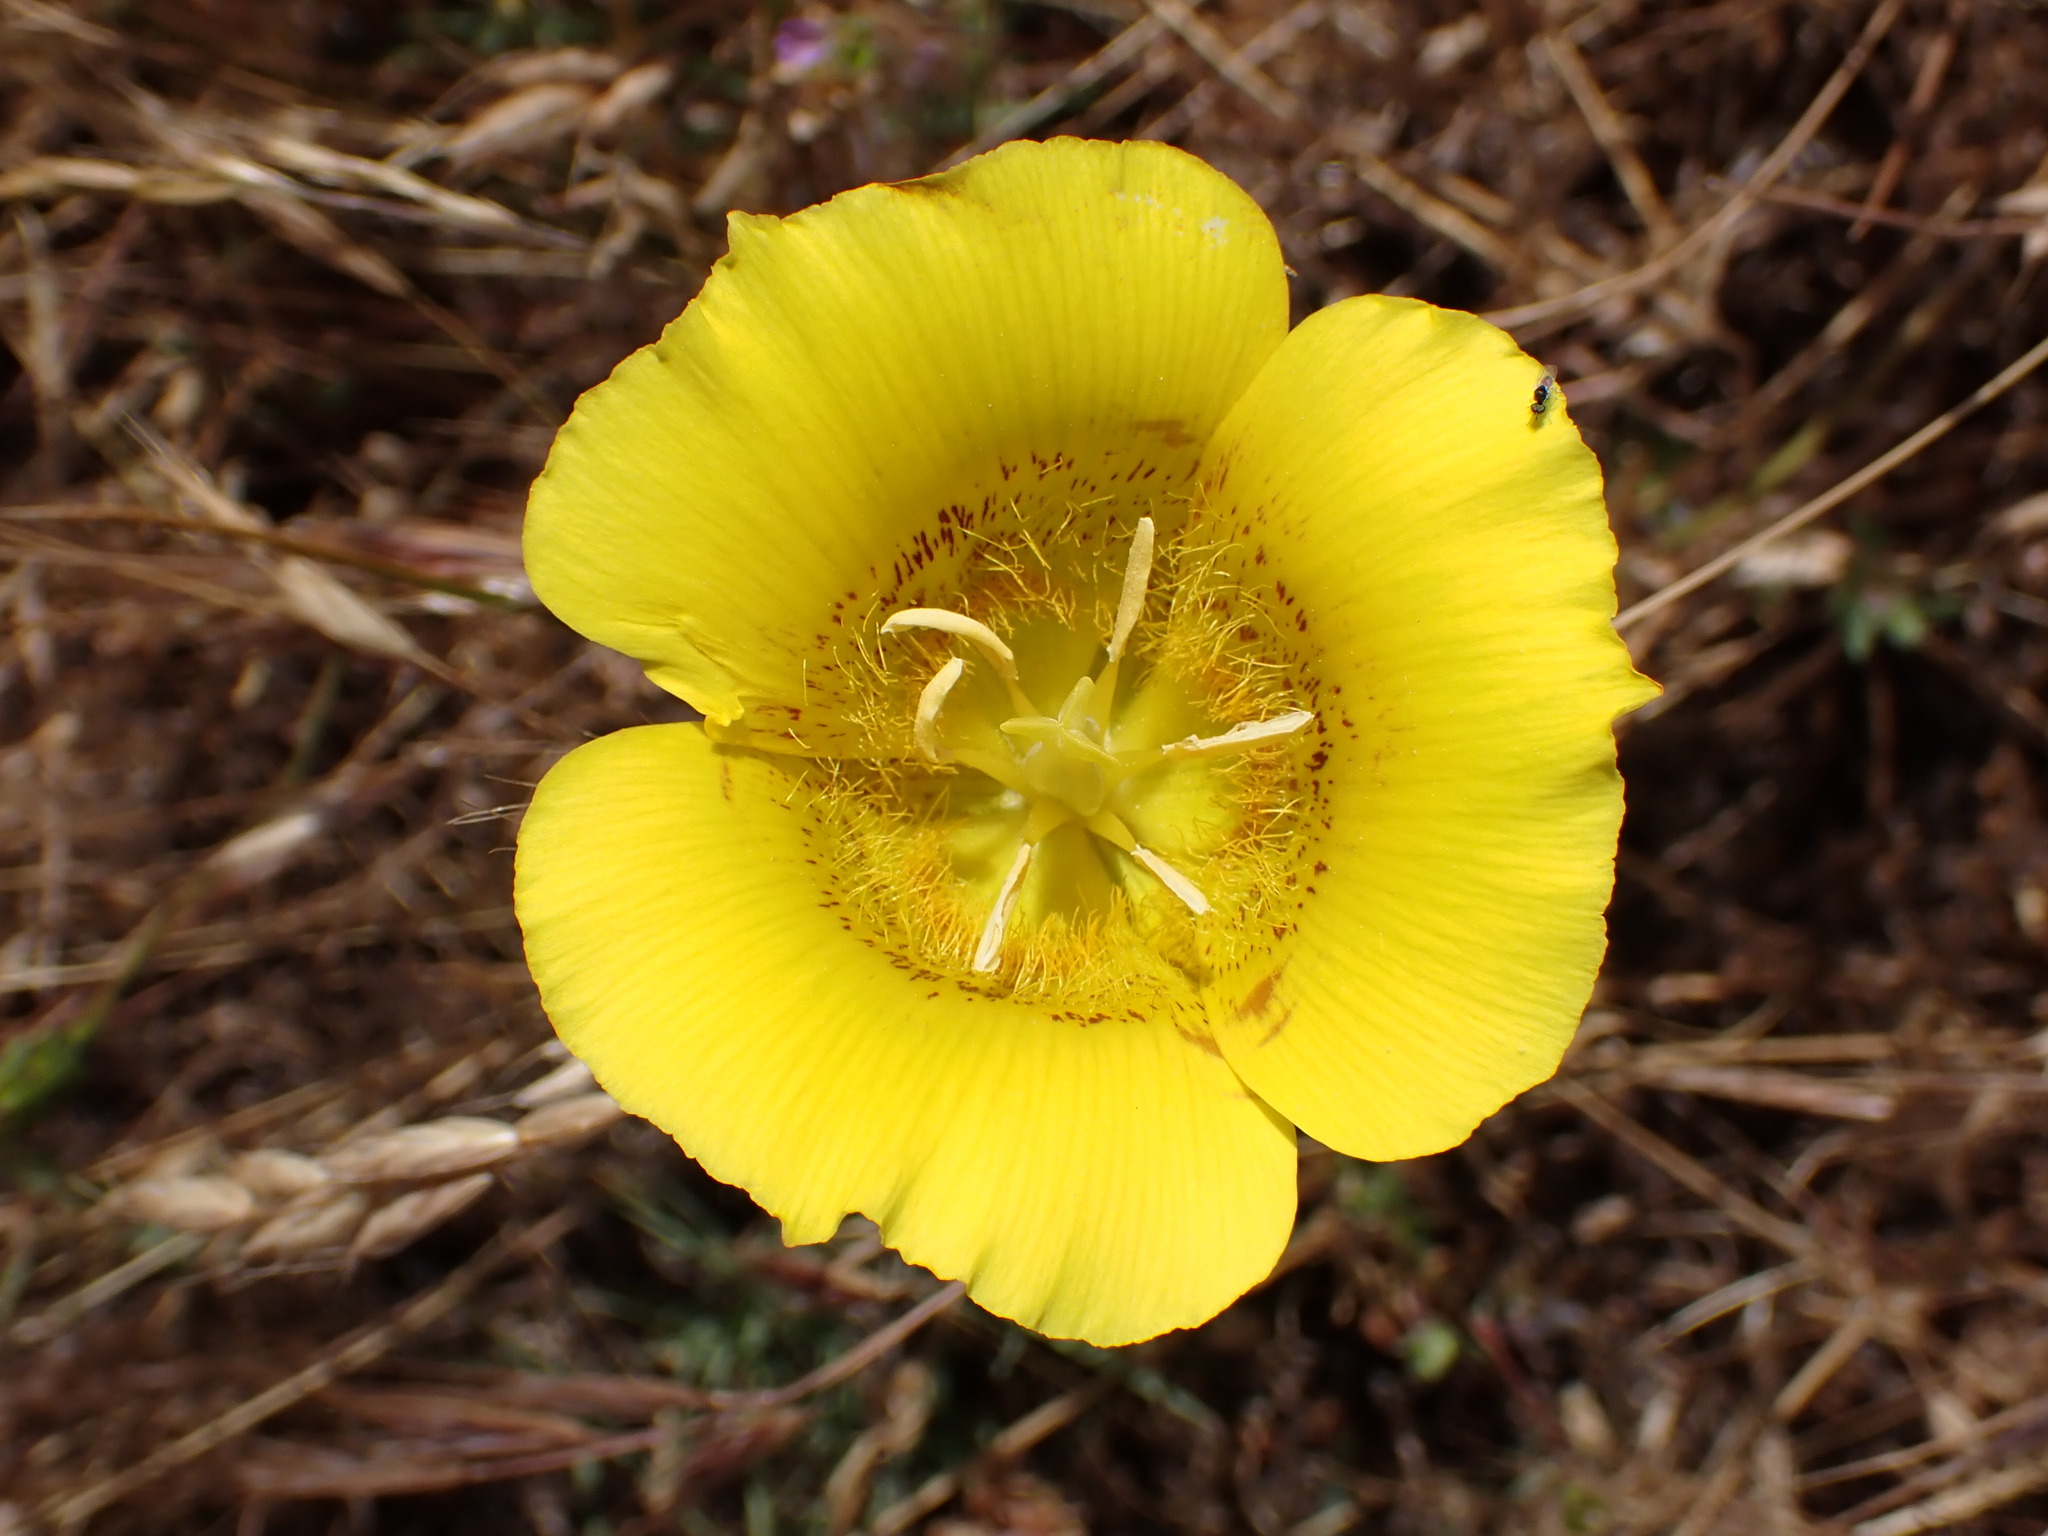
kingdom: Plantae
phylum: Tracheophyta
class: Liliopsida
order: Liliales
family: Liliaceae
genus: Calochortus
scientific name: Calochortus luteus
